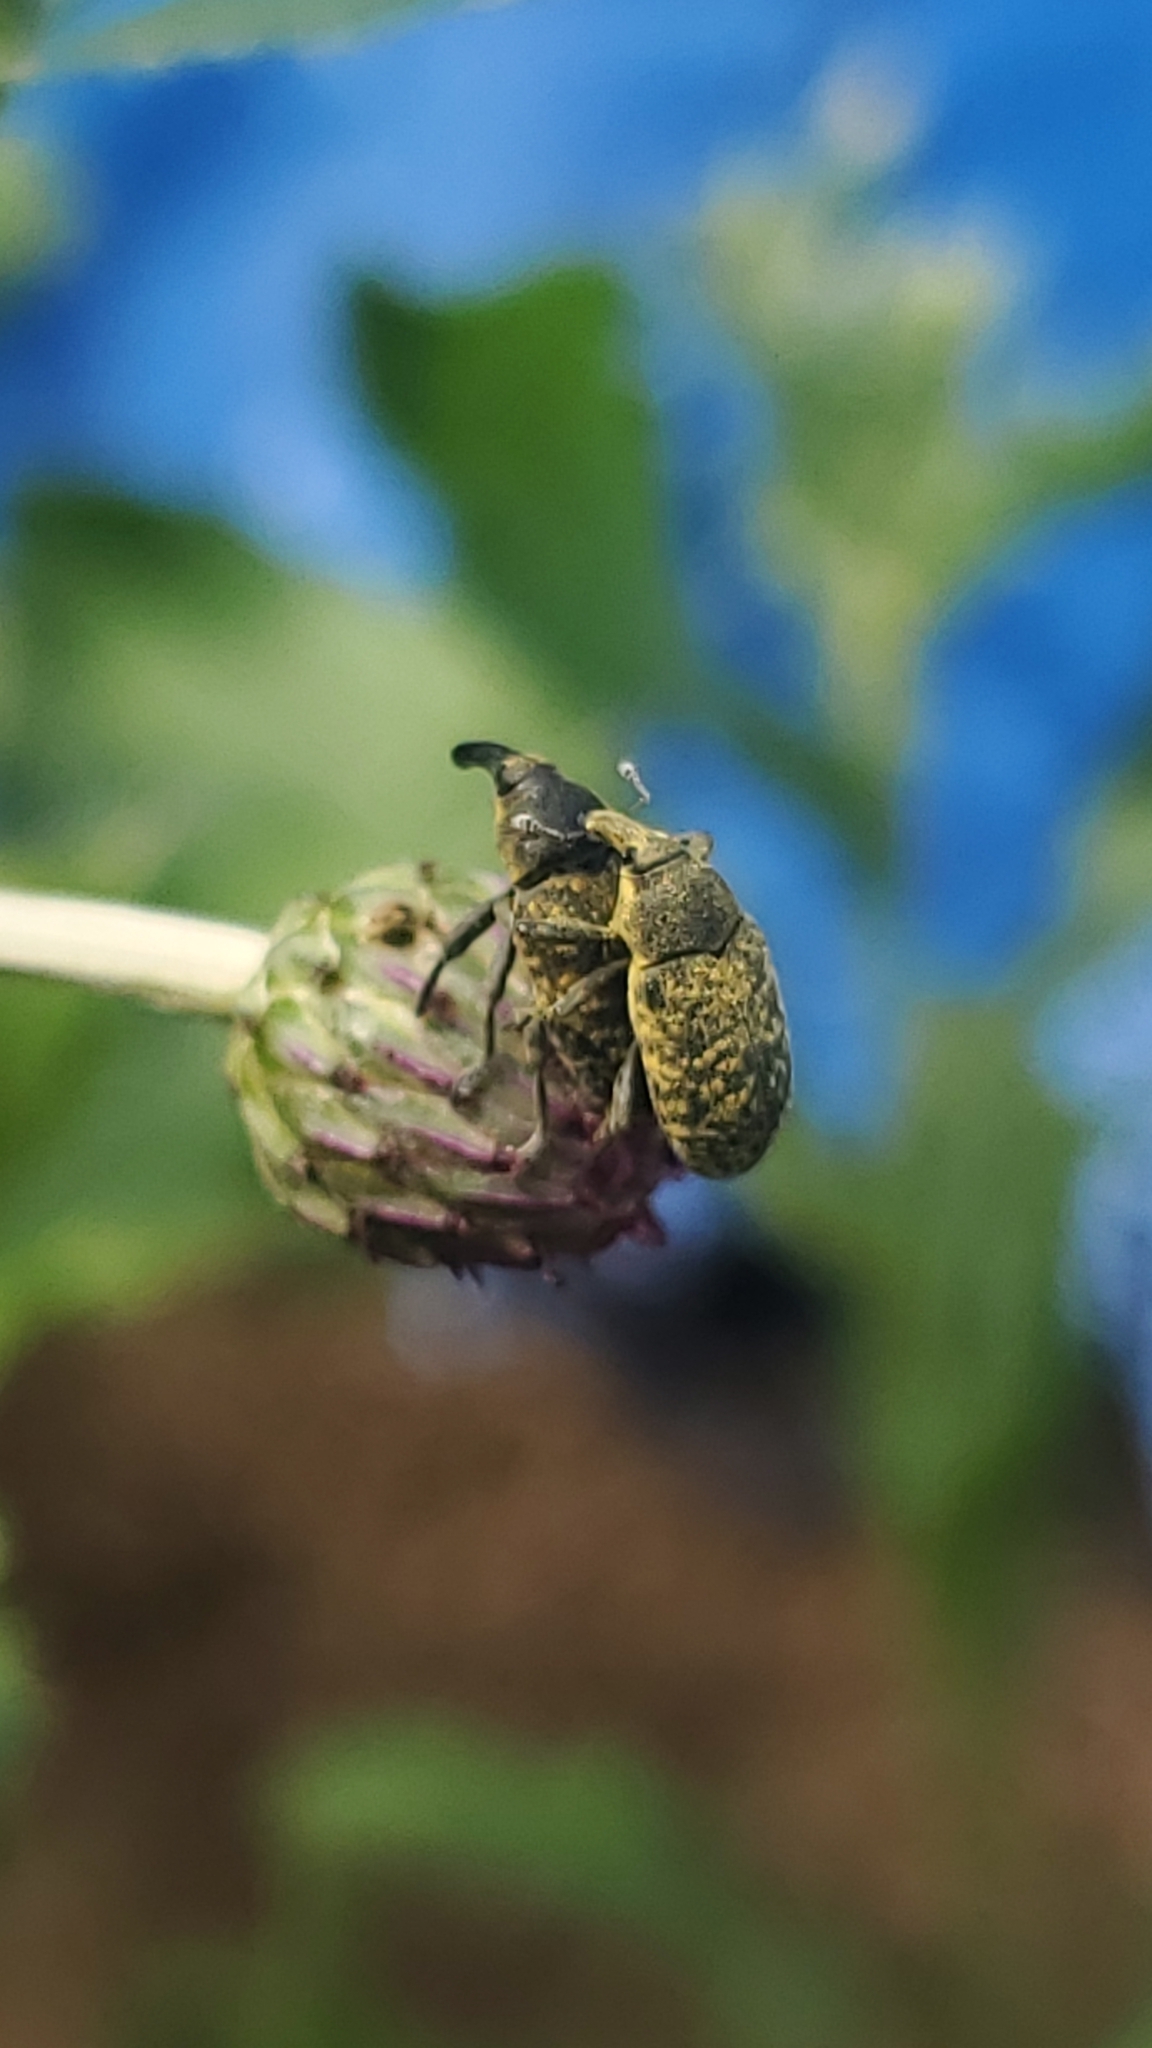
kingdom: Animalia
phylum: Arthropoda
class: Insecta
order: Coleoptera
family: Curculionidae
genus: Larinus
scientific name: Larinus carlinae
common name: Weevil
